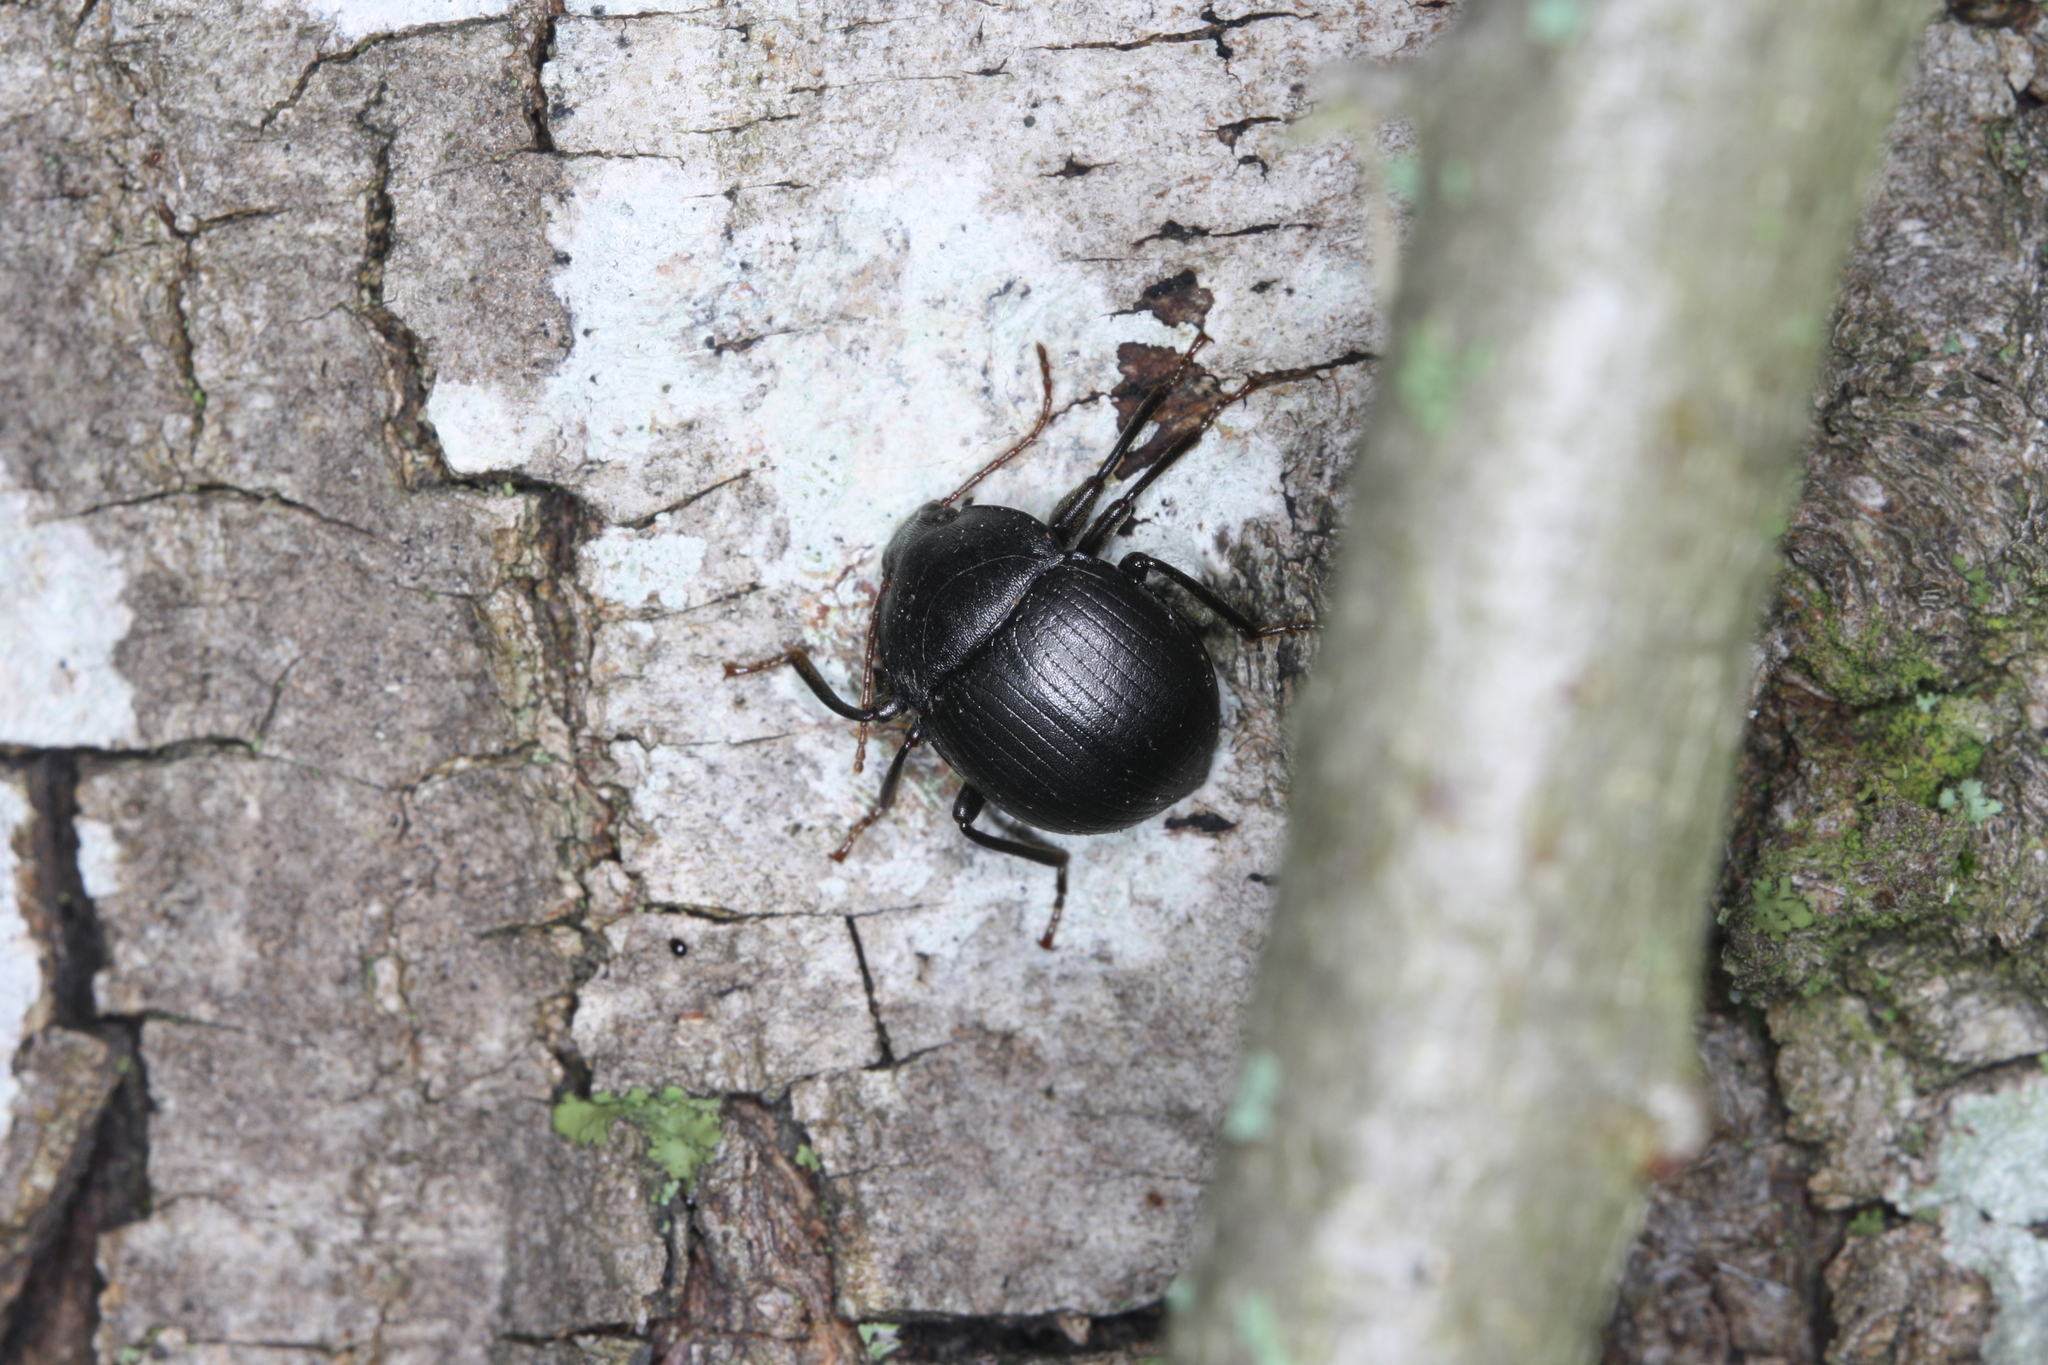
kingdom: Animalia
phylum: Arthropoda
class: Insecta
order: Coleoptera
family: Tenebrionidae
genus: Accanthopus
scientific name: Accanthopus velikensis
